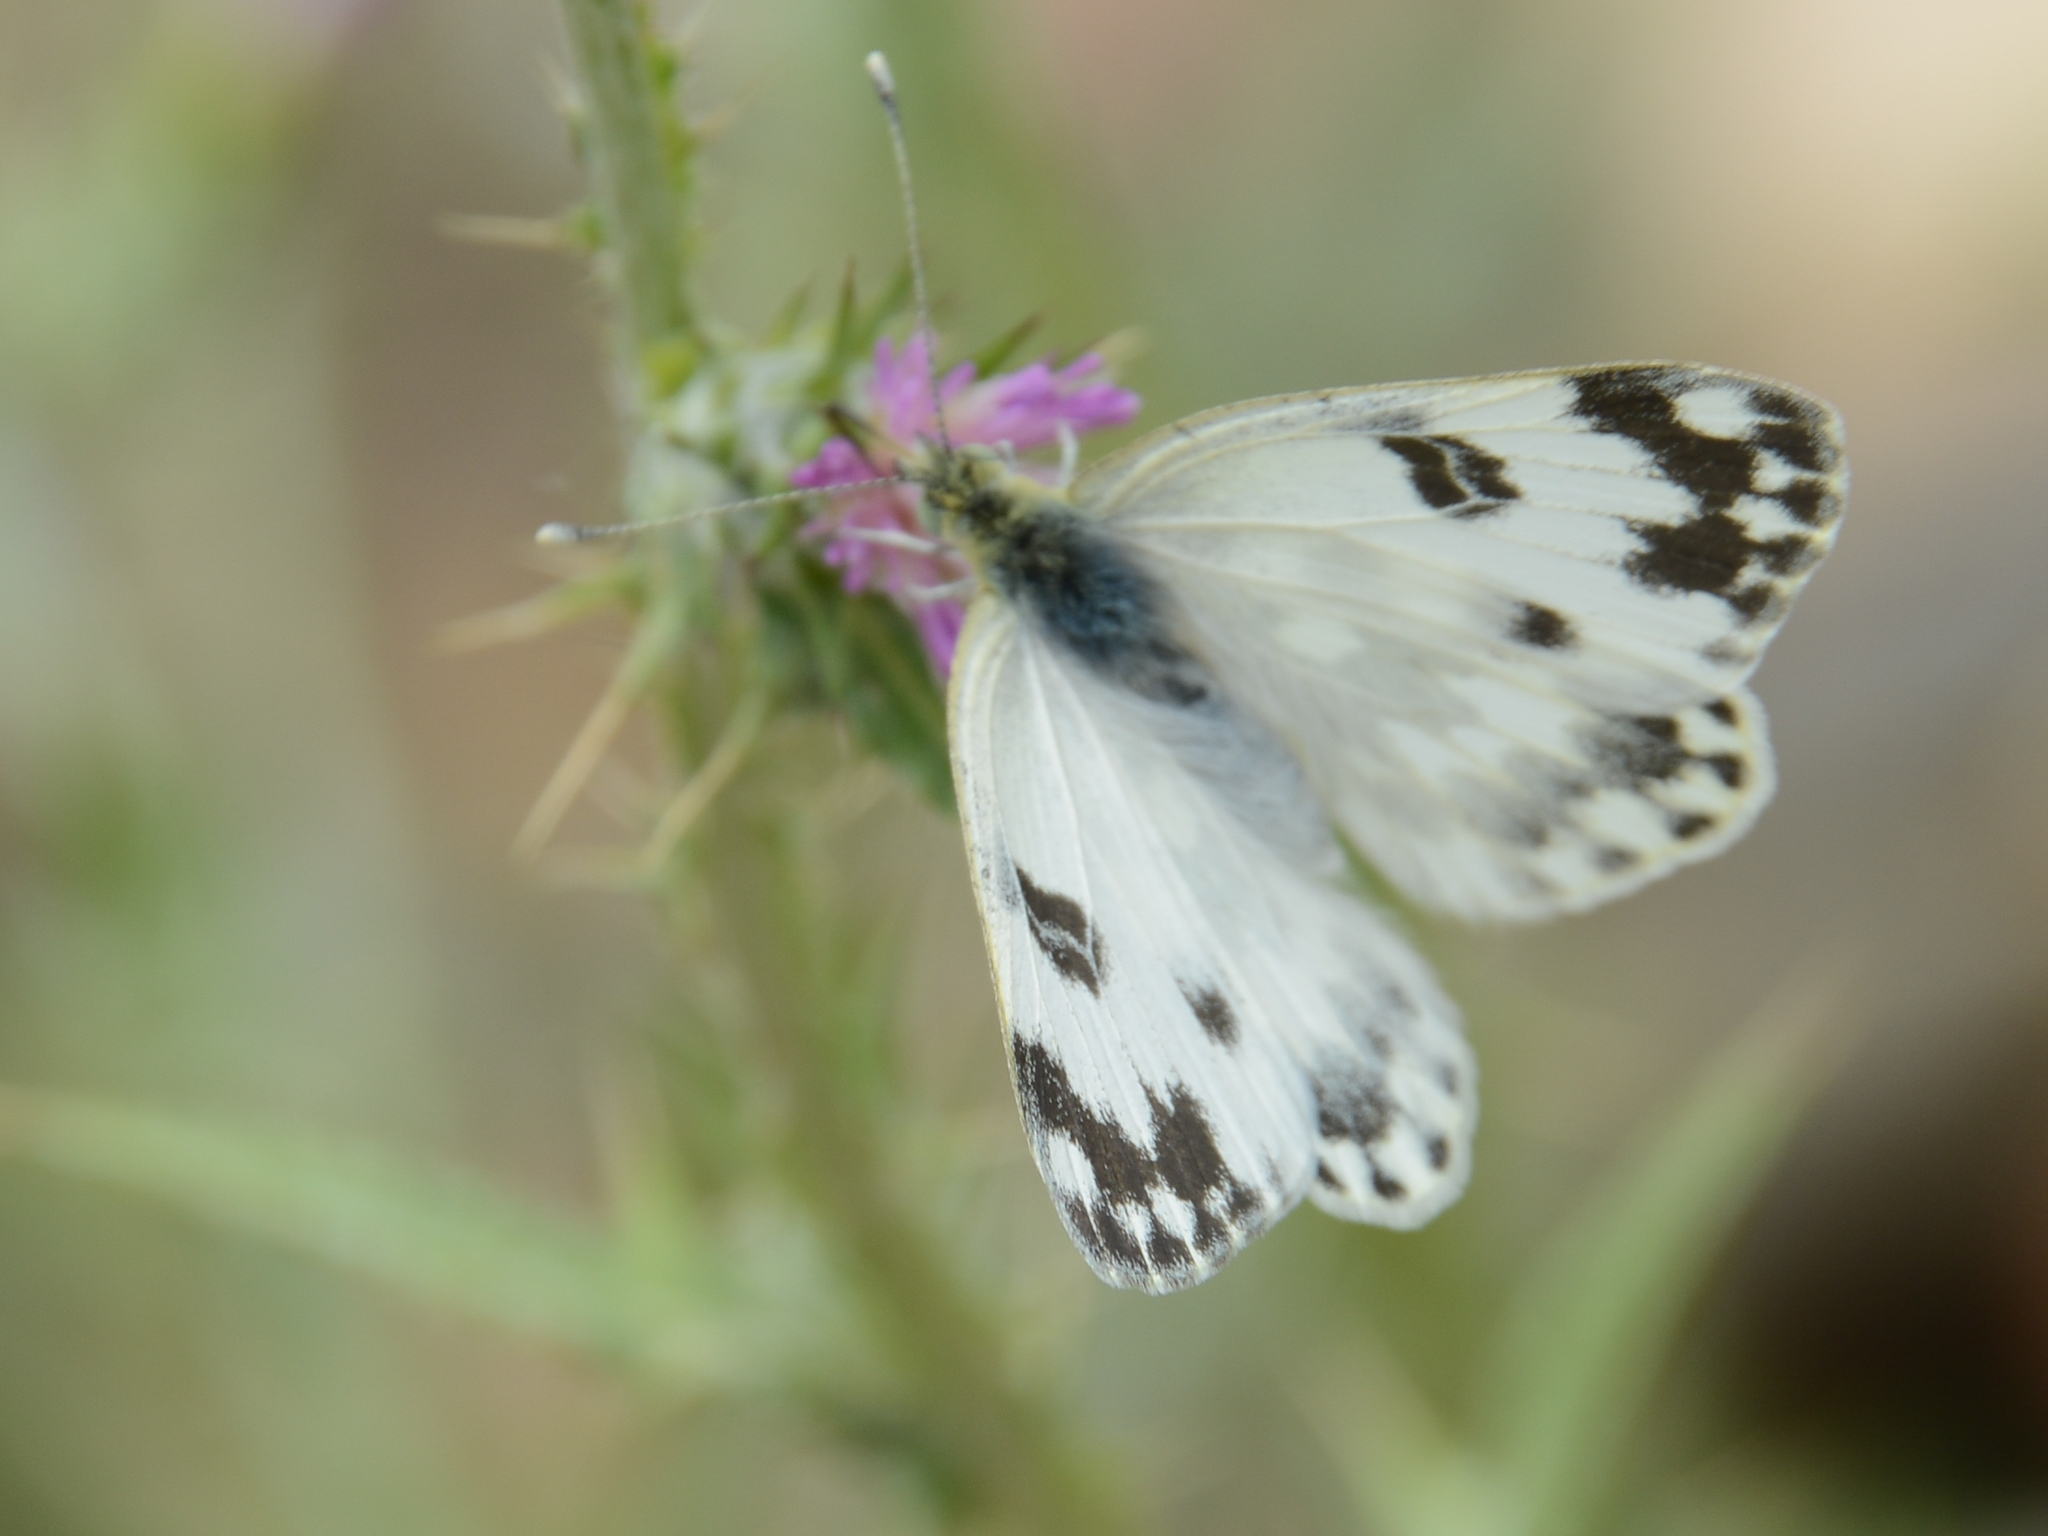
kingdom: Animalia
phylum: Arthropoda
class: Insecta
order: Lepidoptera
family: Pieridae
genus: Pontia
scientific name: Pontia edusa
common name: Eastern bath white
